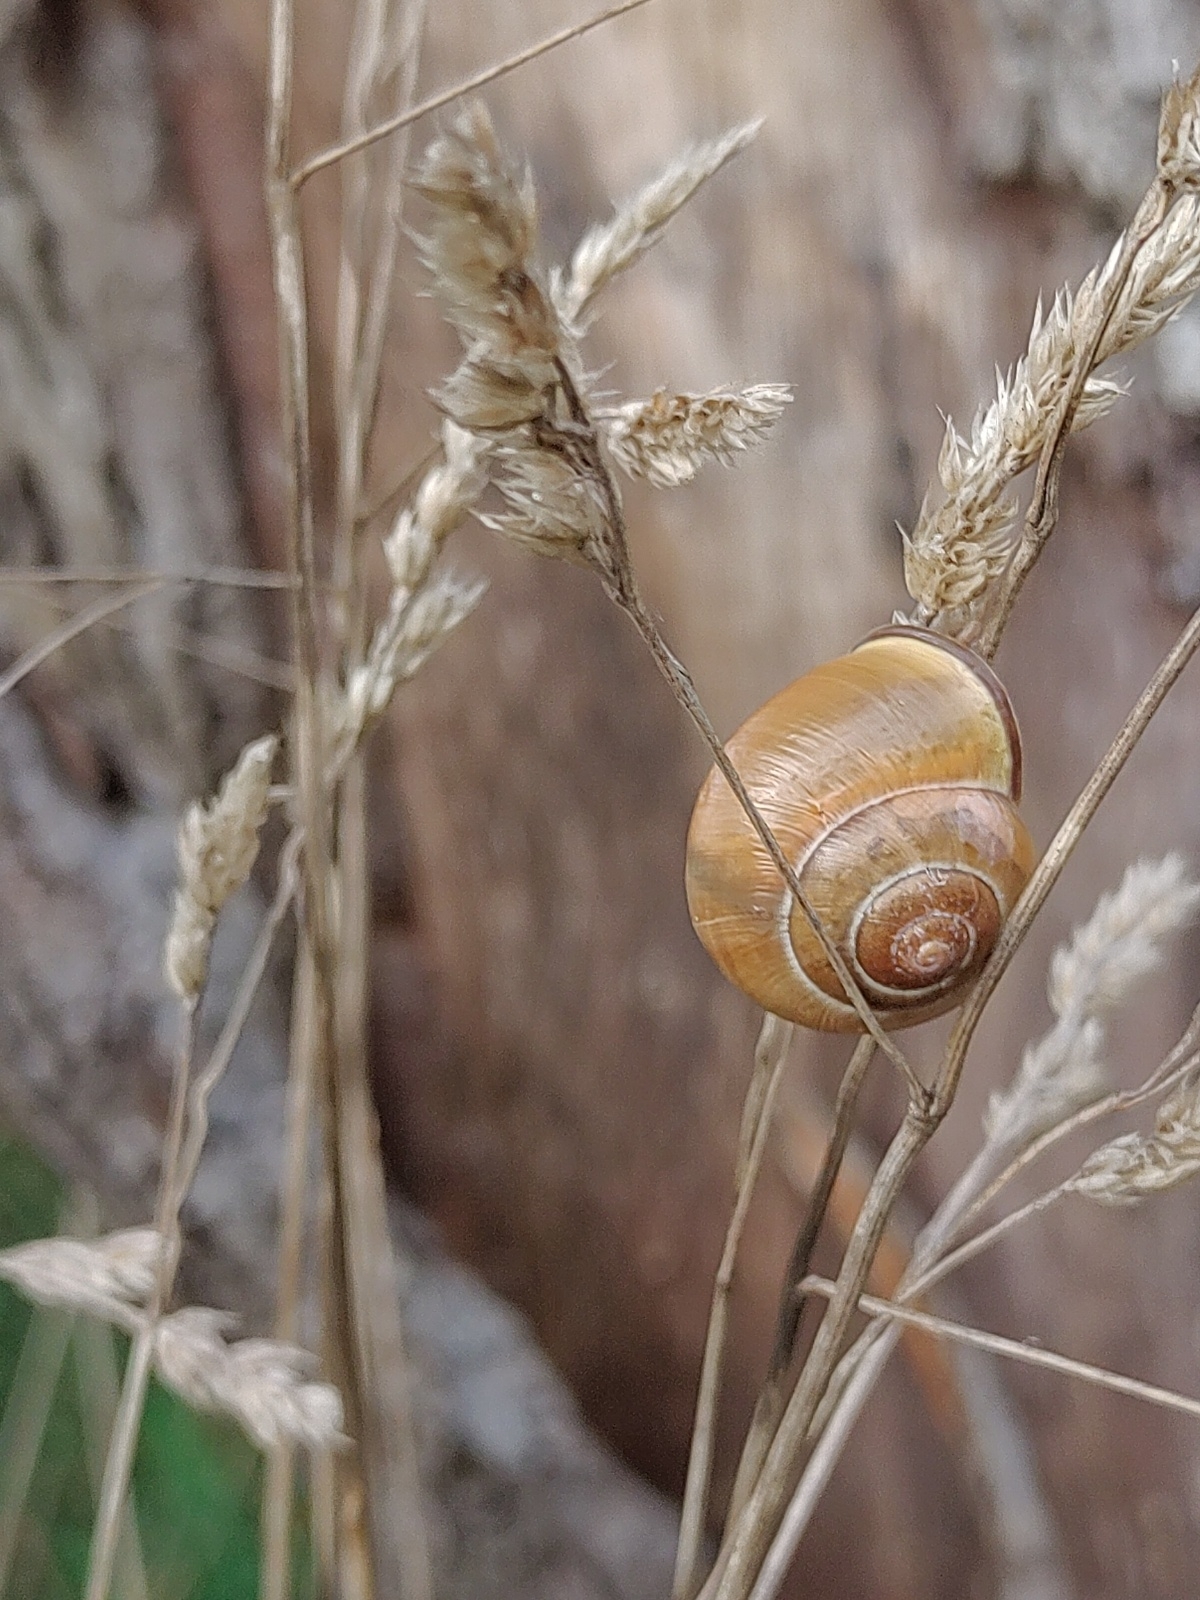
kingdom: Animalia
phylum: Mollusca
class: Gastropoda
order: Stylommatophora
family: Helicidae
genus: Cepaea
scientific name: Cepaea nemoralis
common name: Grovesnail
